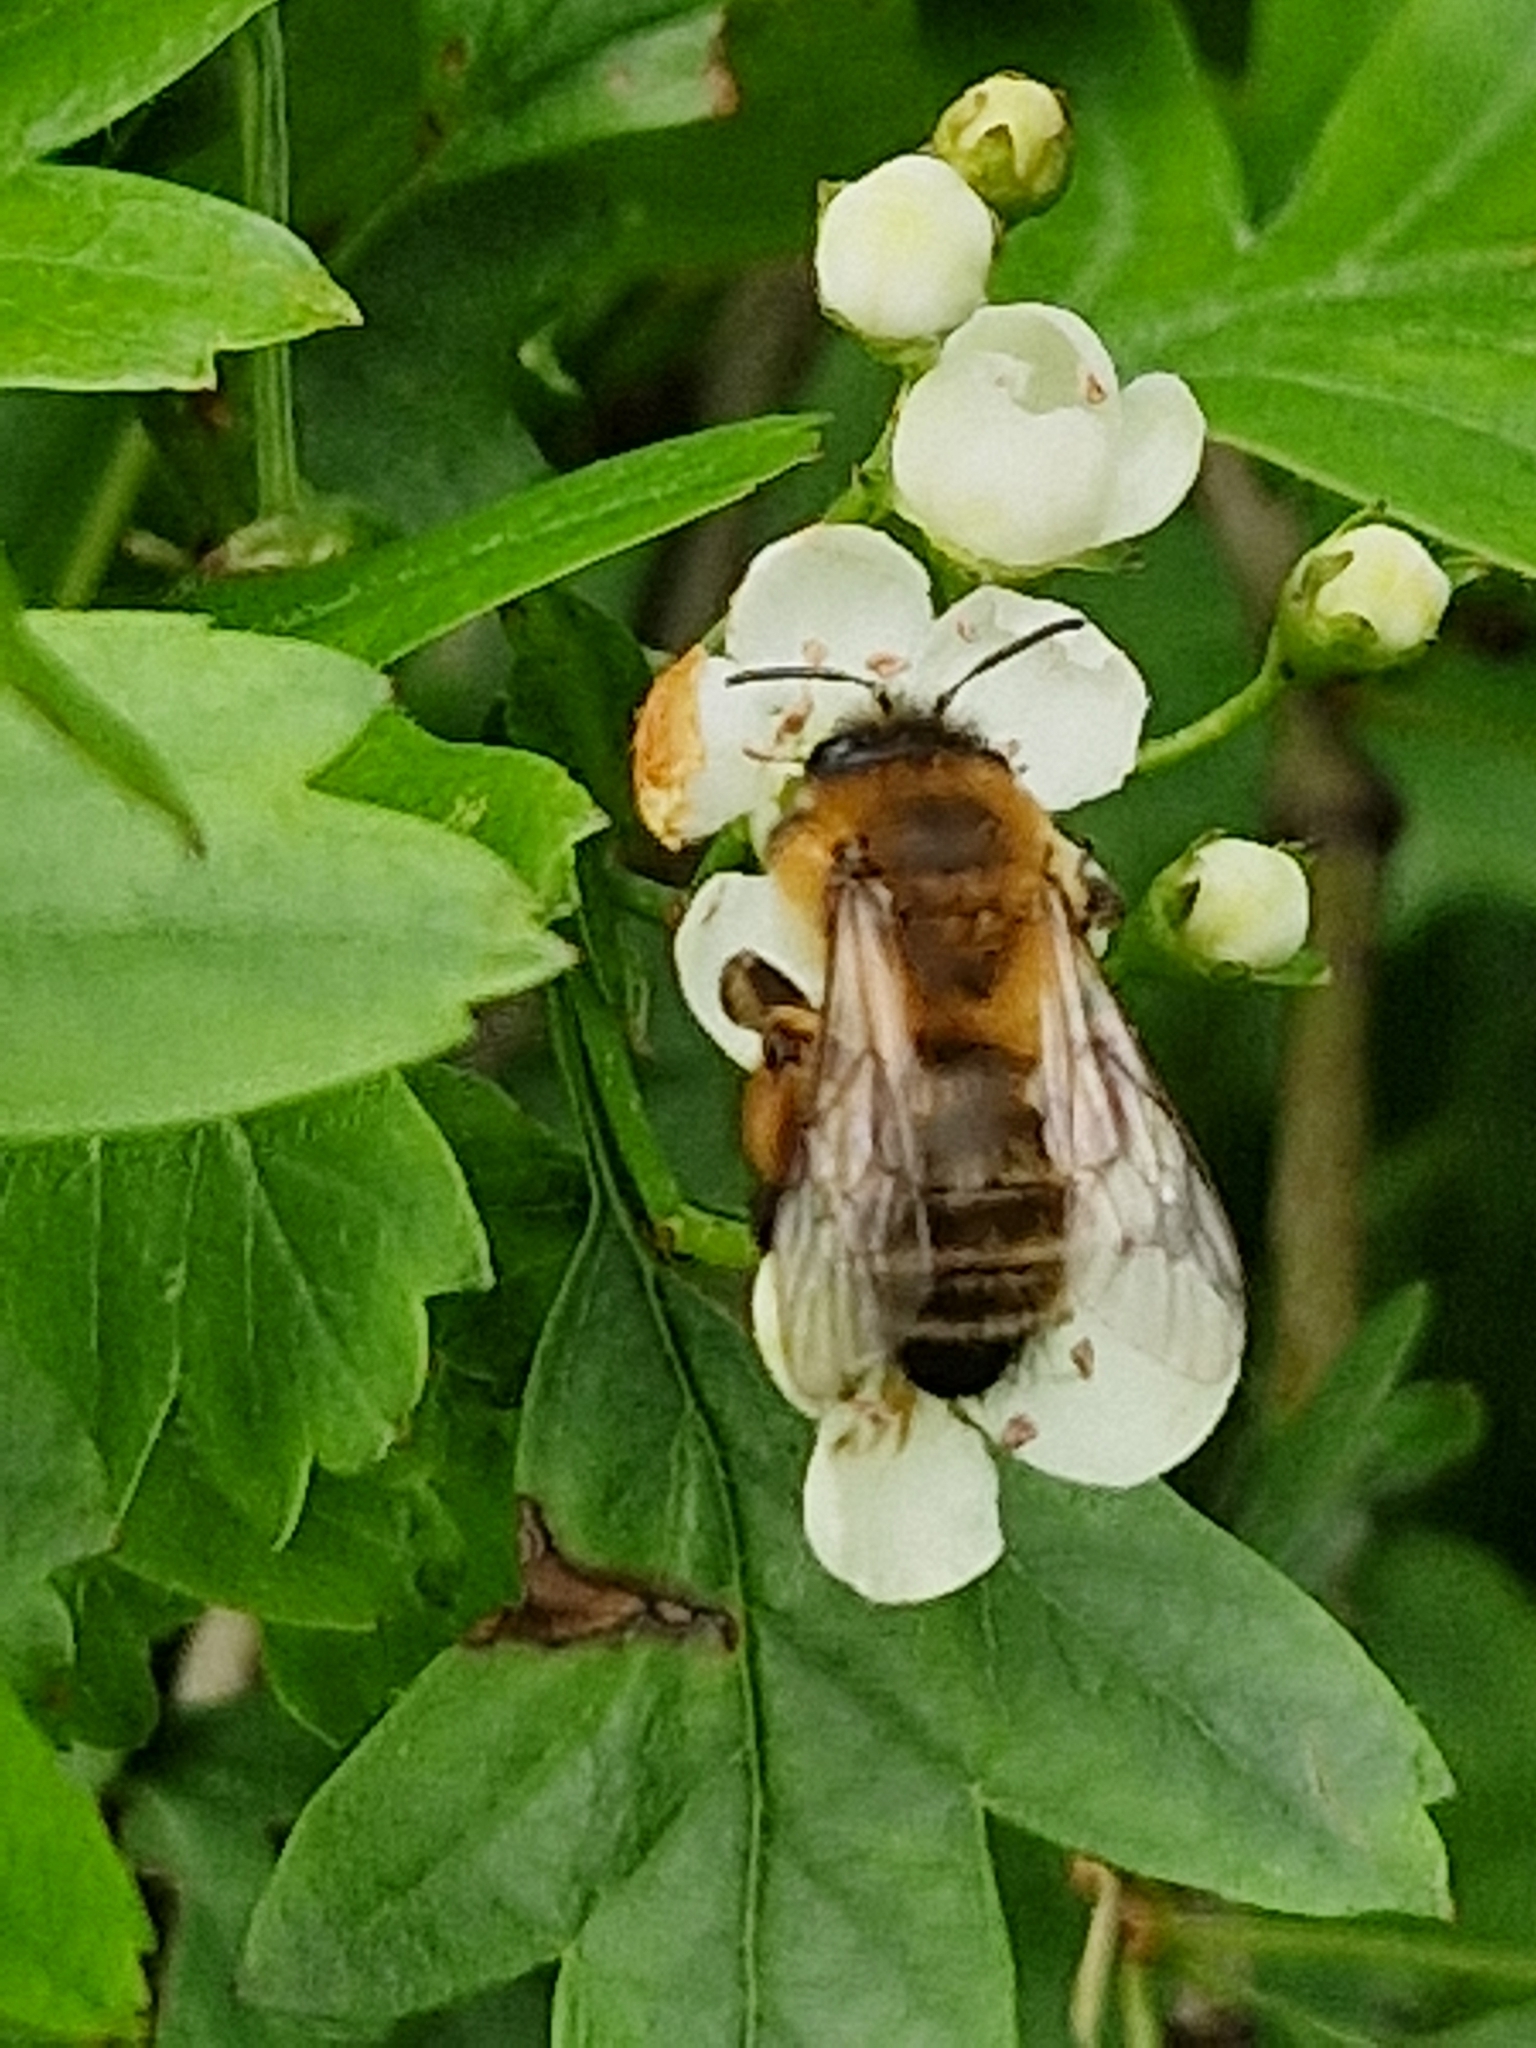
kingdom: Animalia
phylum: Arthropoda
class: Insecta
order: Hymenoptera
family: Andrenidae
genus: Andrena
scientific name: Andrena nigroaenea
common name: Buffish mining bee
